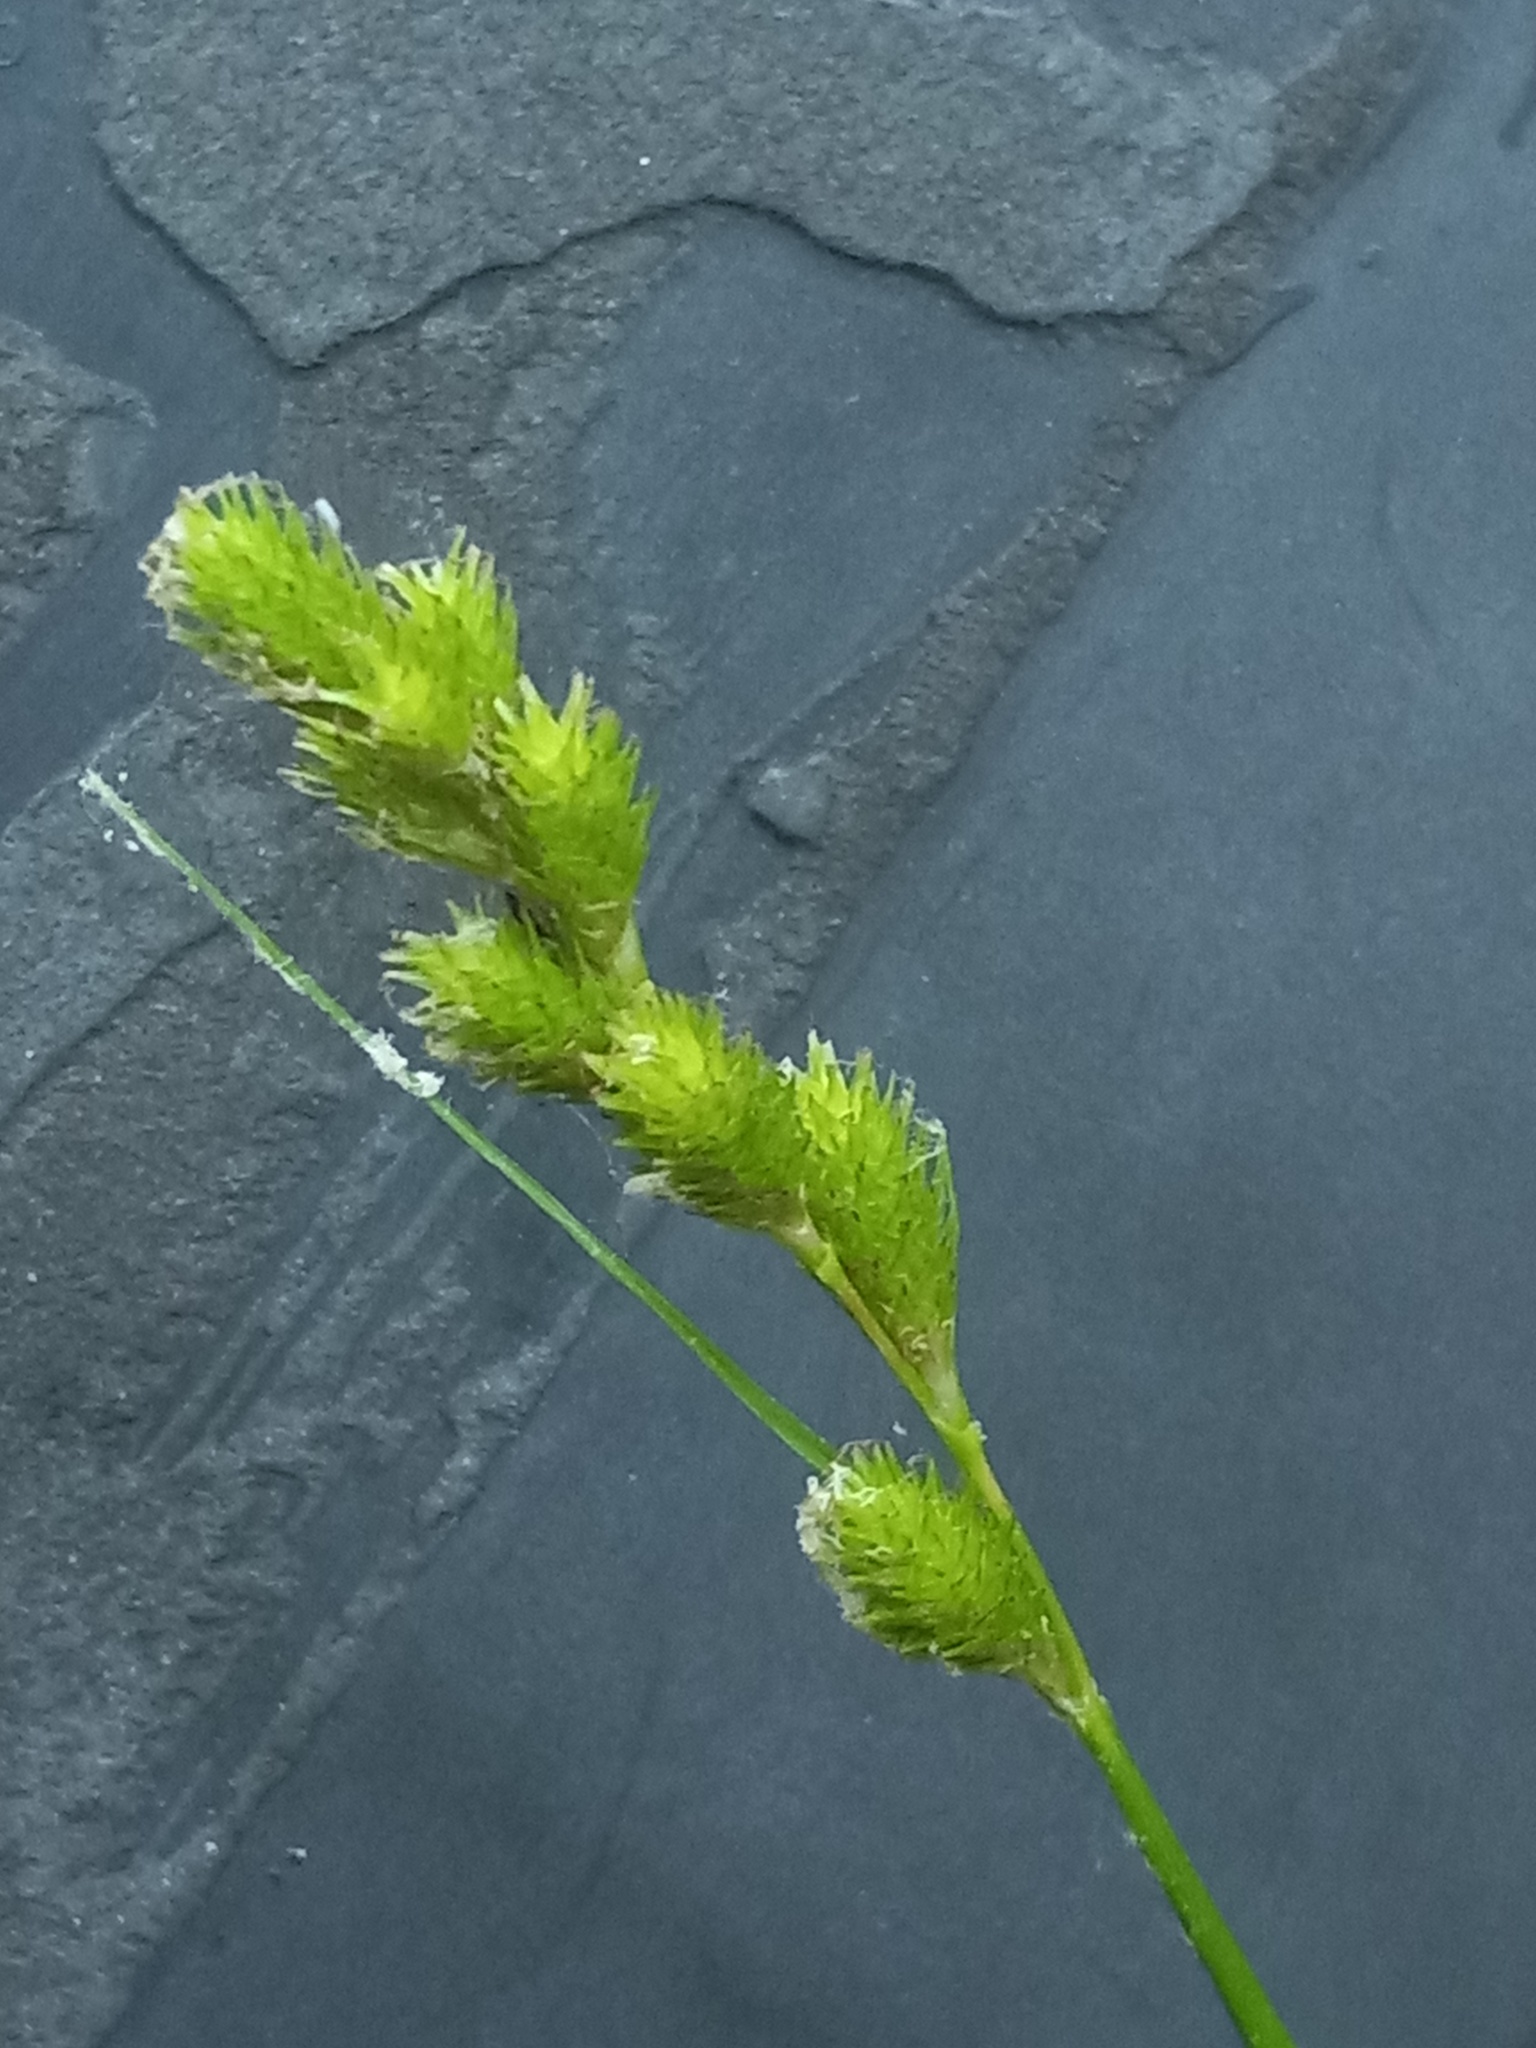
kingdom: Plantae
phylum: Tracheophyta
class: Liliopsida
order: Poales
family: Cyperaceae
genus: Carex
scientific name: Carex tribuloides
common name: Blunt broom sedge
